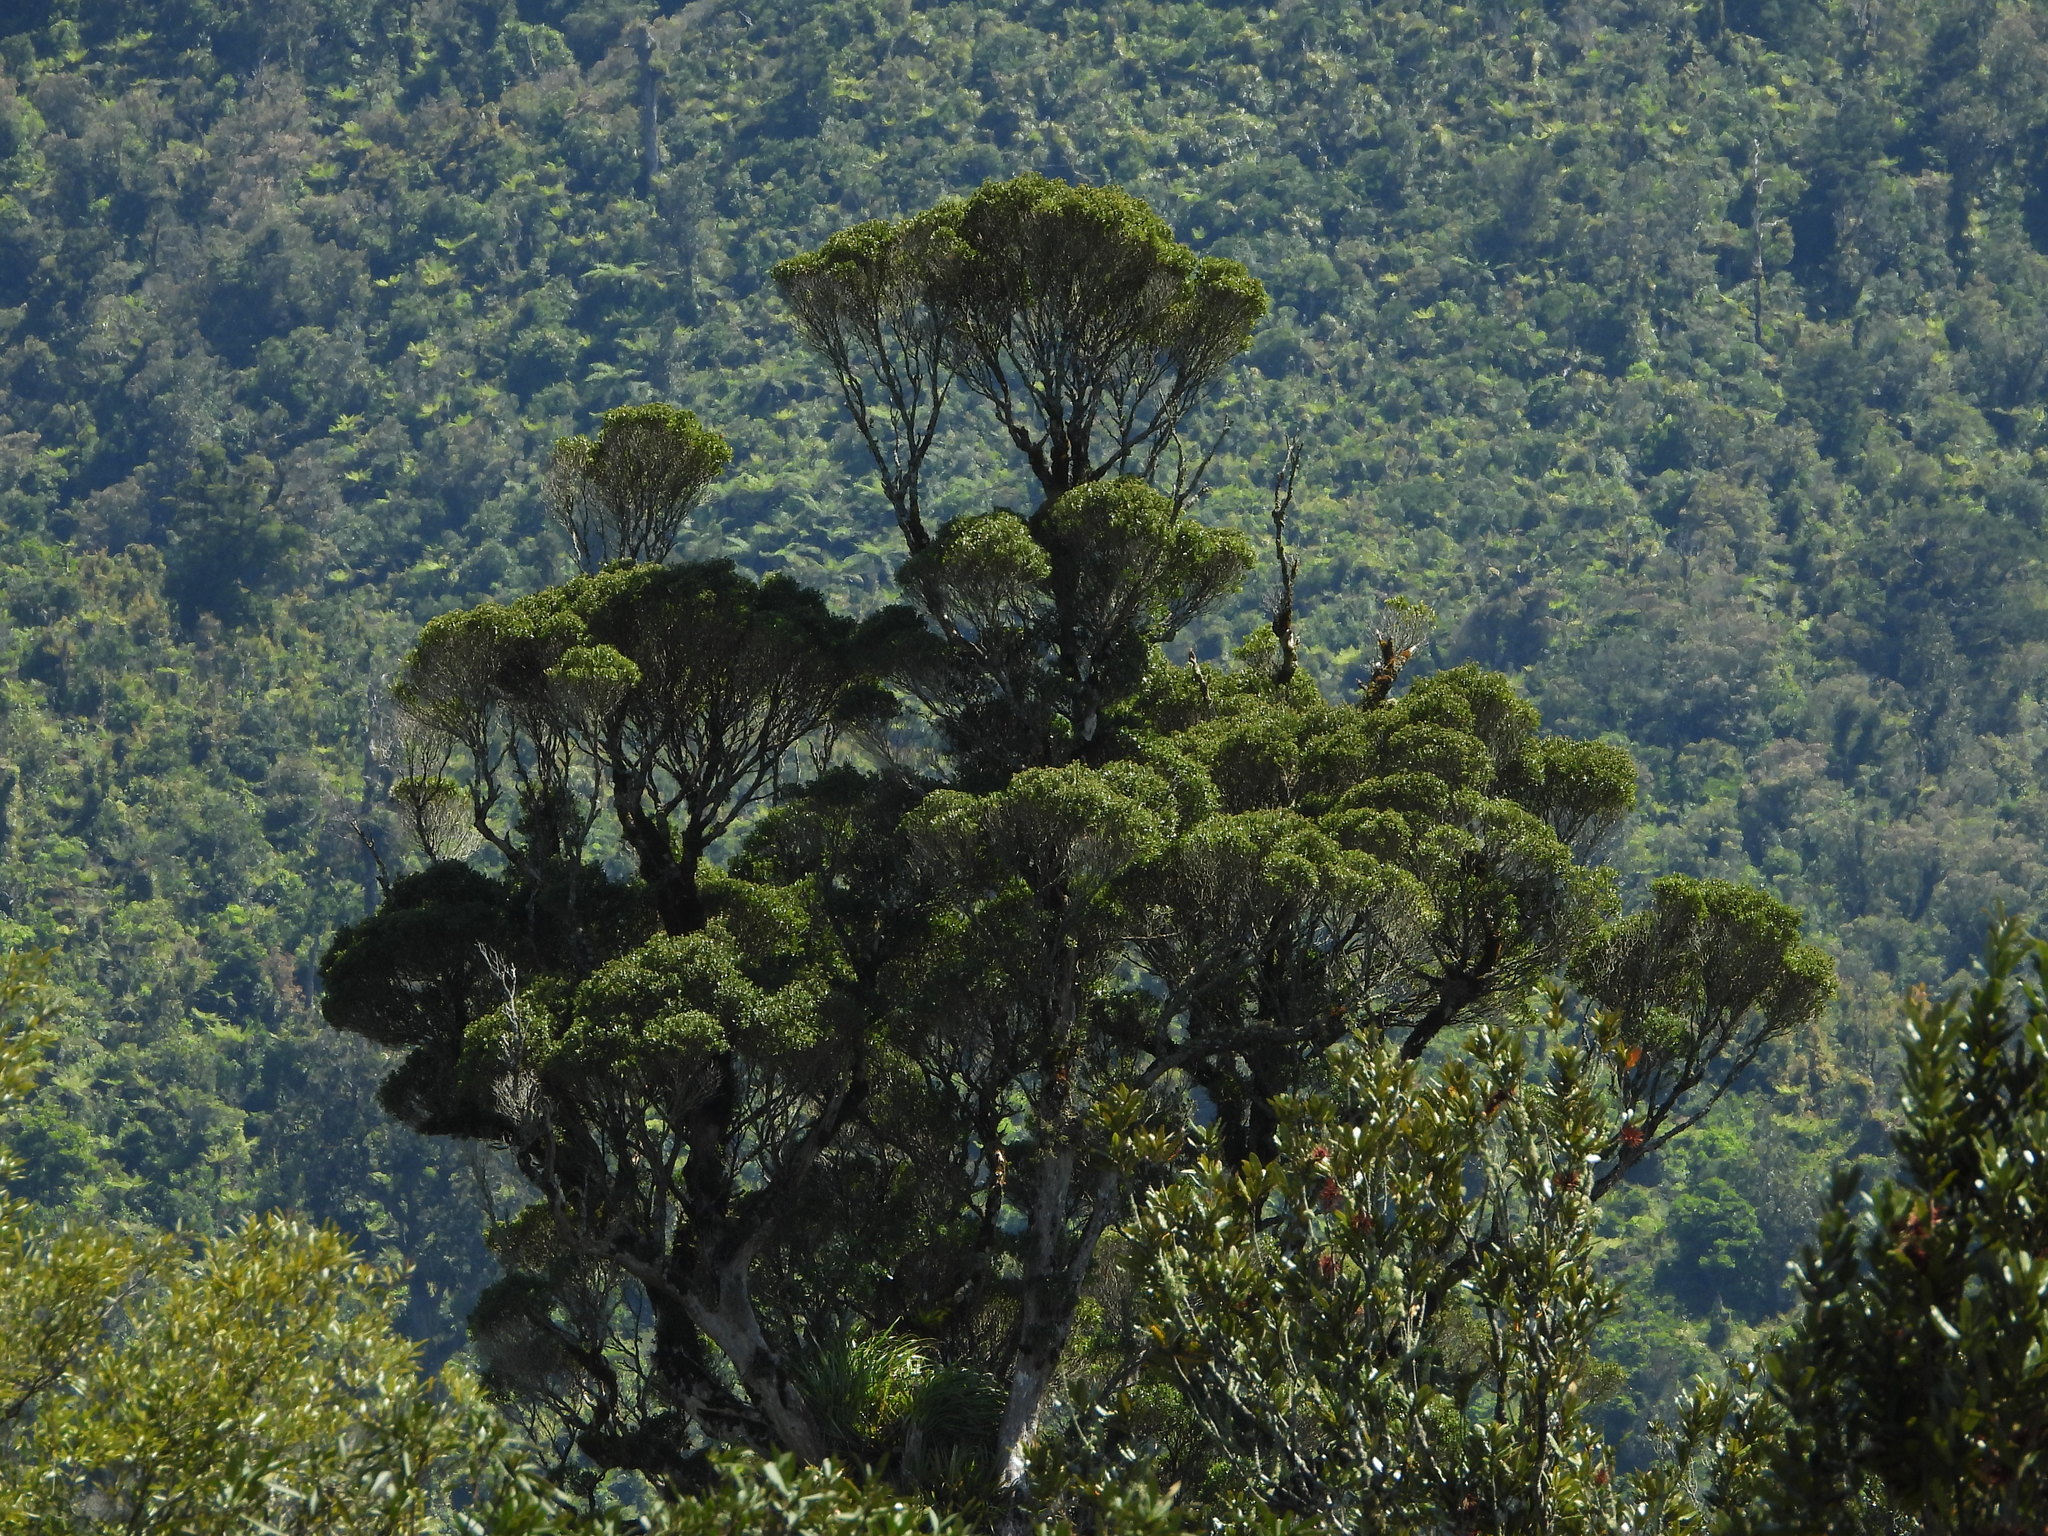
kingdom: Plantae
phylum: Tracheophyta
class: Magnoliopsida
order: Myrtales
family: Myrtaceae
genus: Metrosideros
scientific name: Metrosideros robusta
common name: Northern rata
